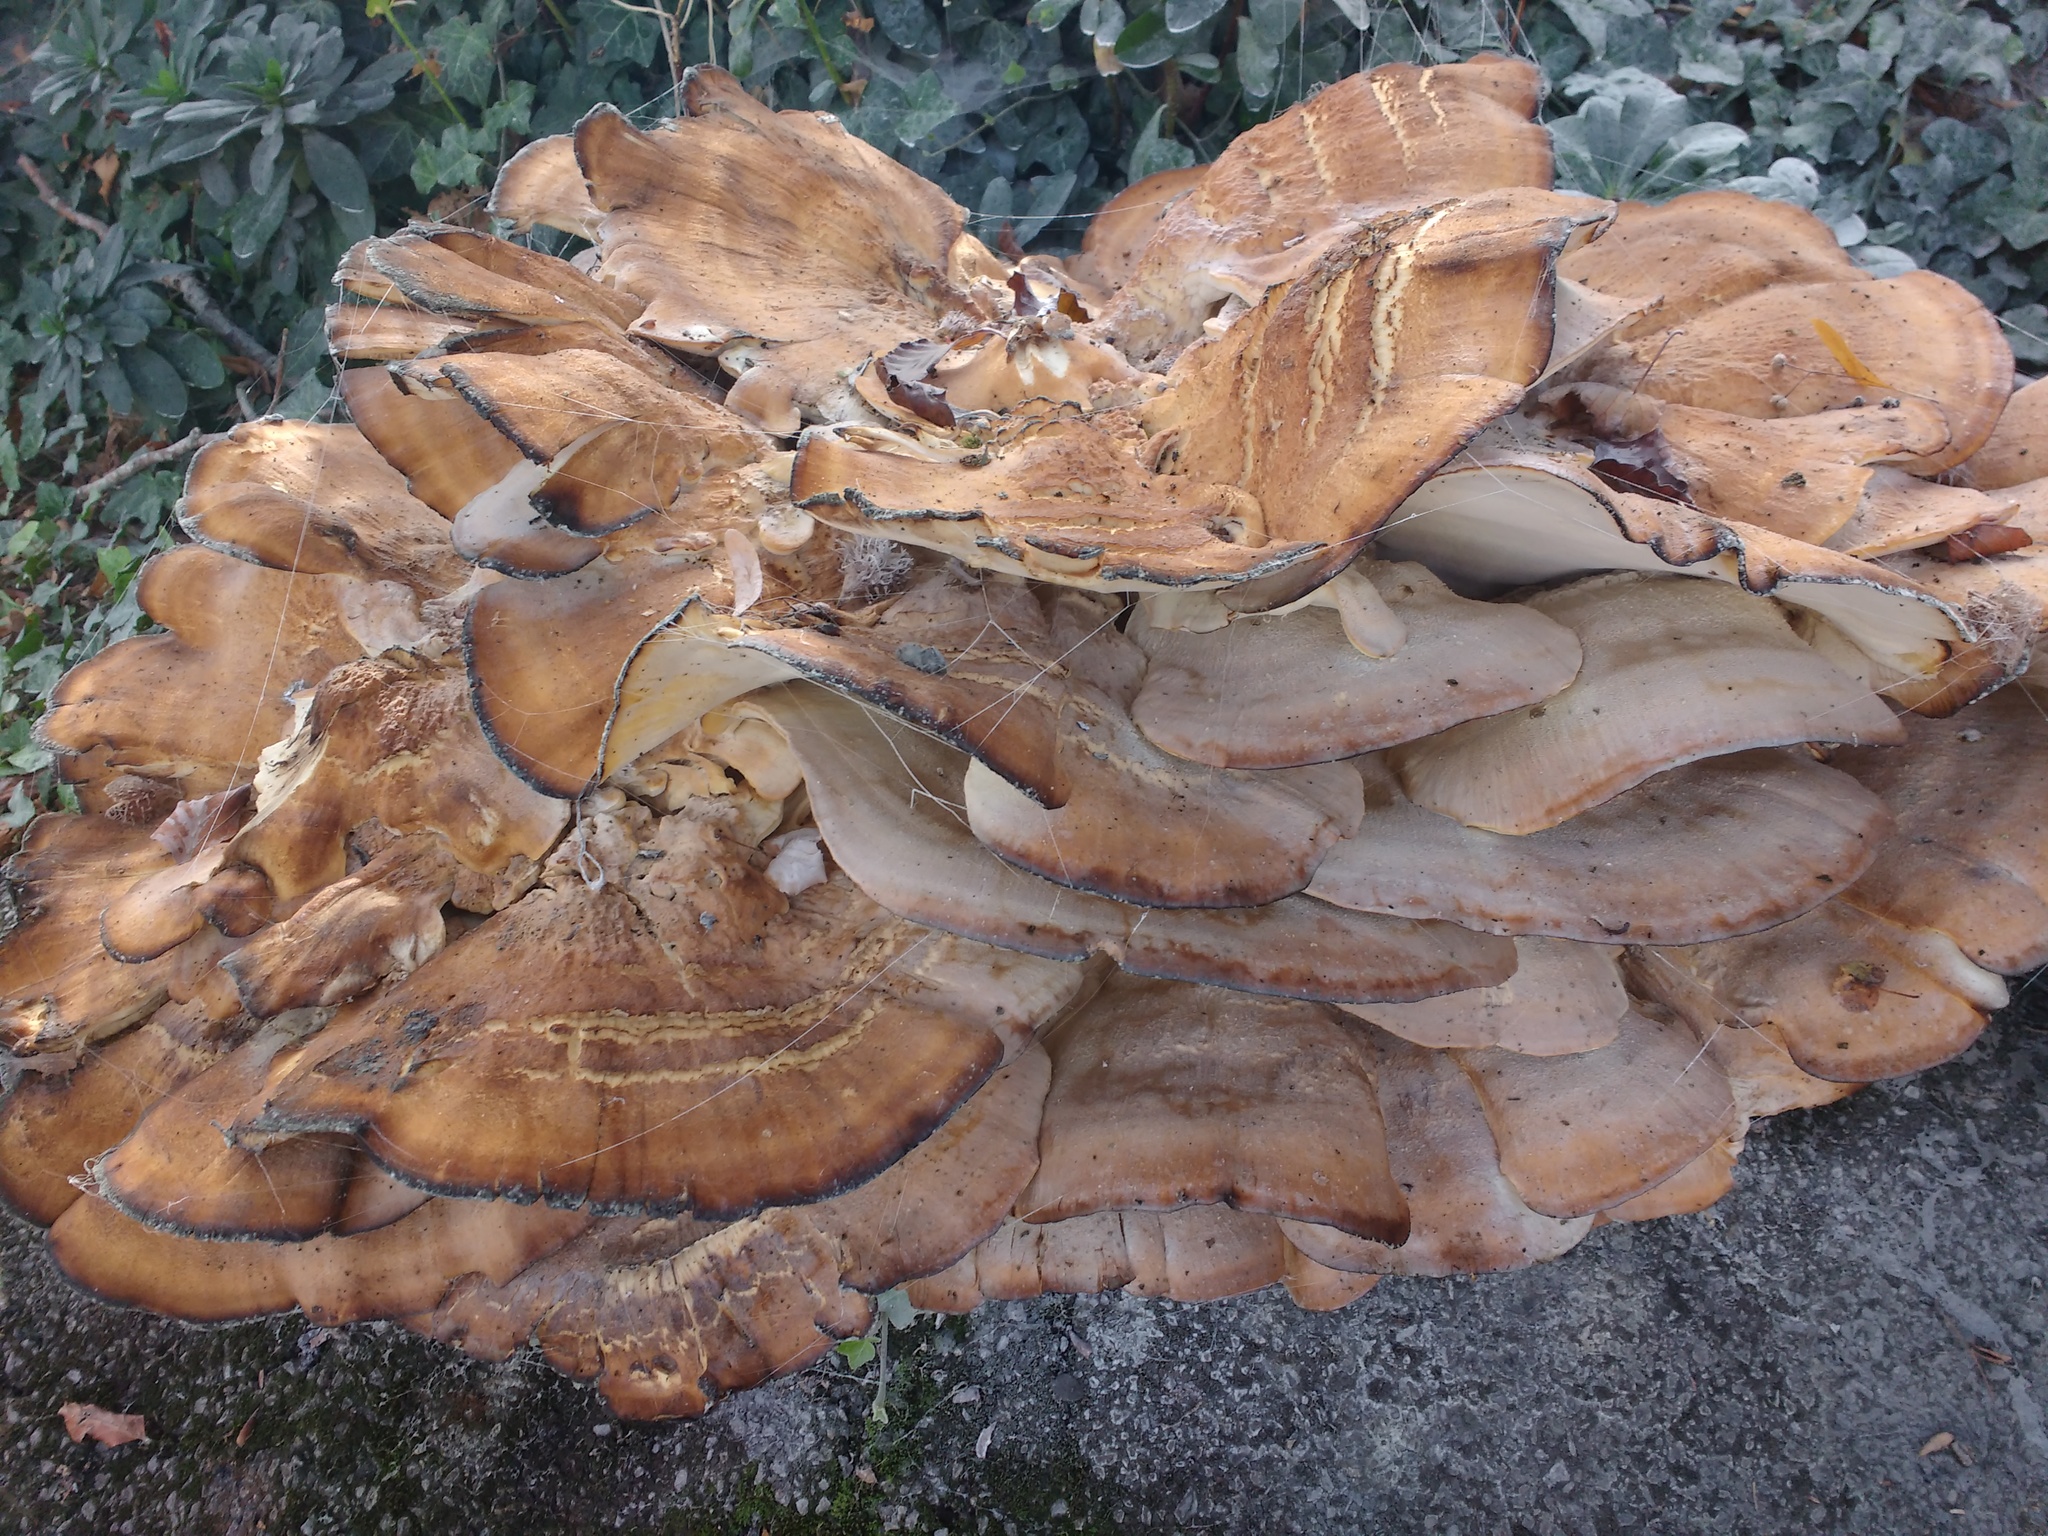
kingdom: Fungi
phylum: Basidiomycota
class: Agaricomycetes
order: Polyporales
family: Meripilaceae
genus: Meripilus
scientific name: Meripilus giganteus
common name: Giant polypore
